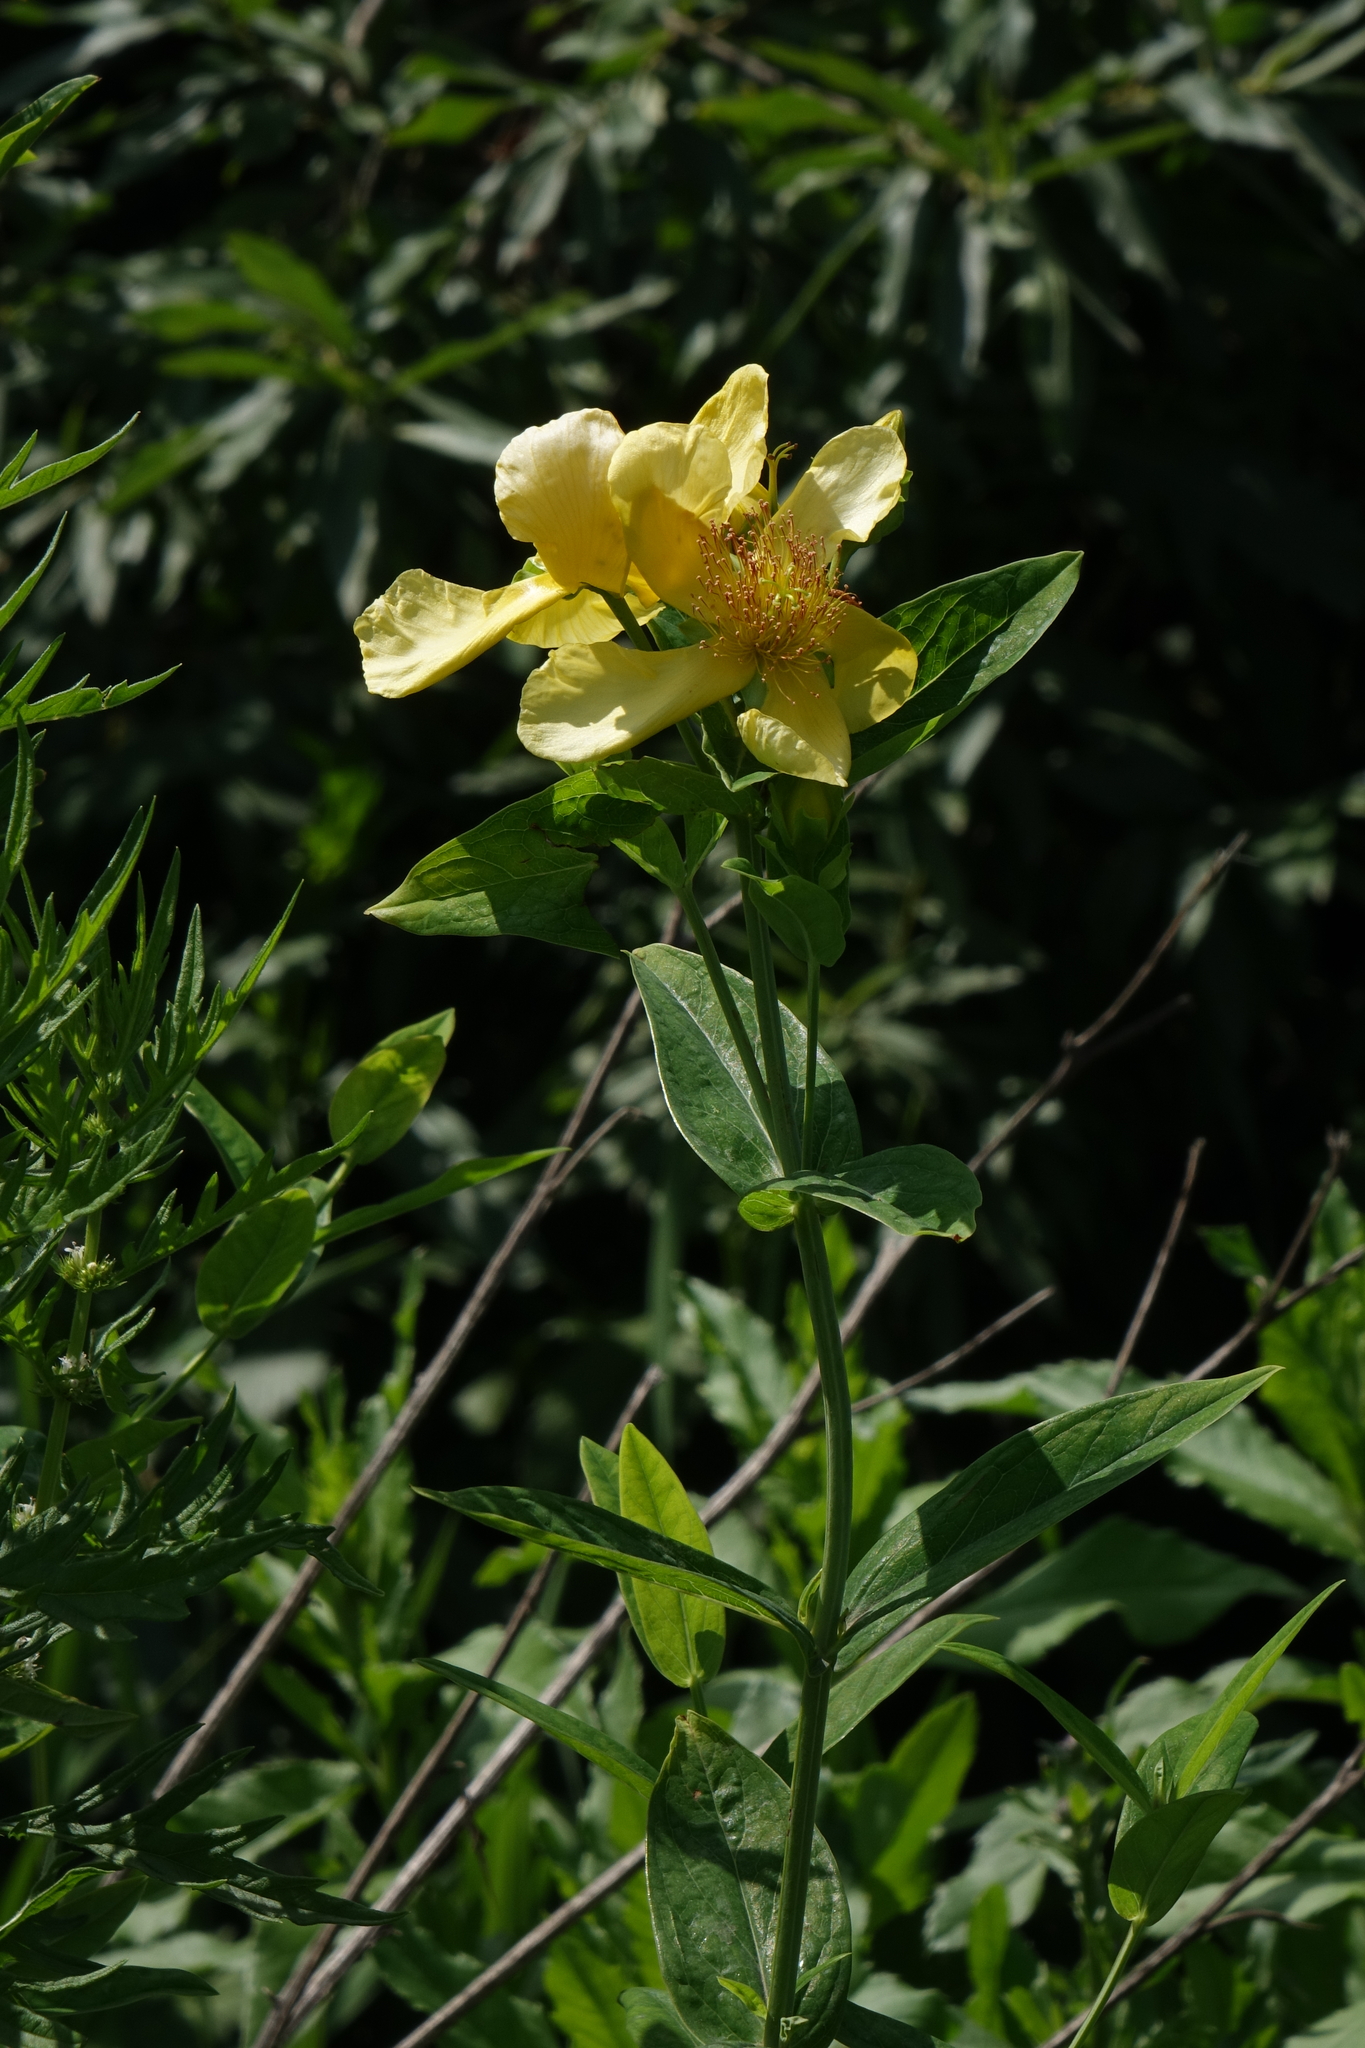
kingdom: Plantae
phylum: Tracheophyta
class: Magnoliopsida
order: Malpighiales
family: Hypericaceae
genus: Hypericum
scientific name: Hypericum ascyron
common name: Giant st. john's-wort
